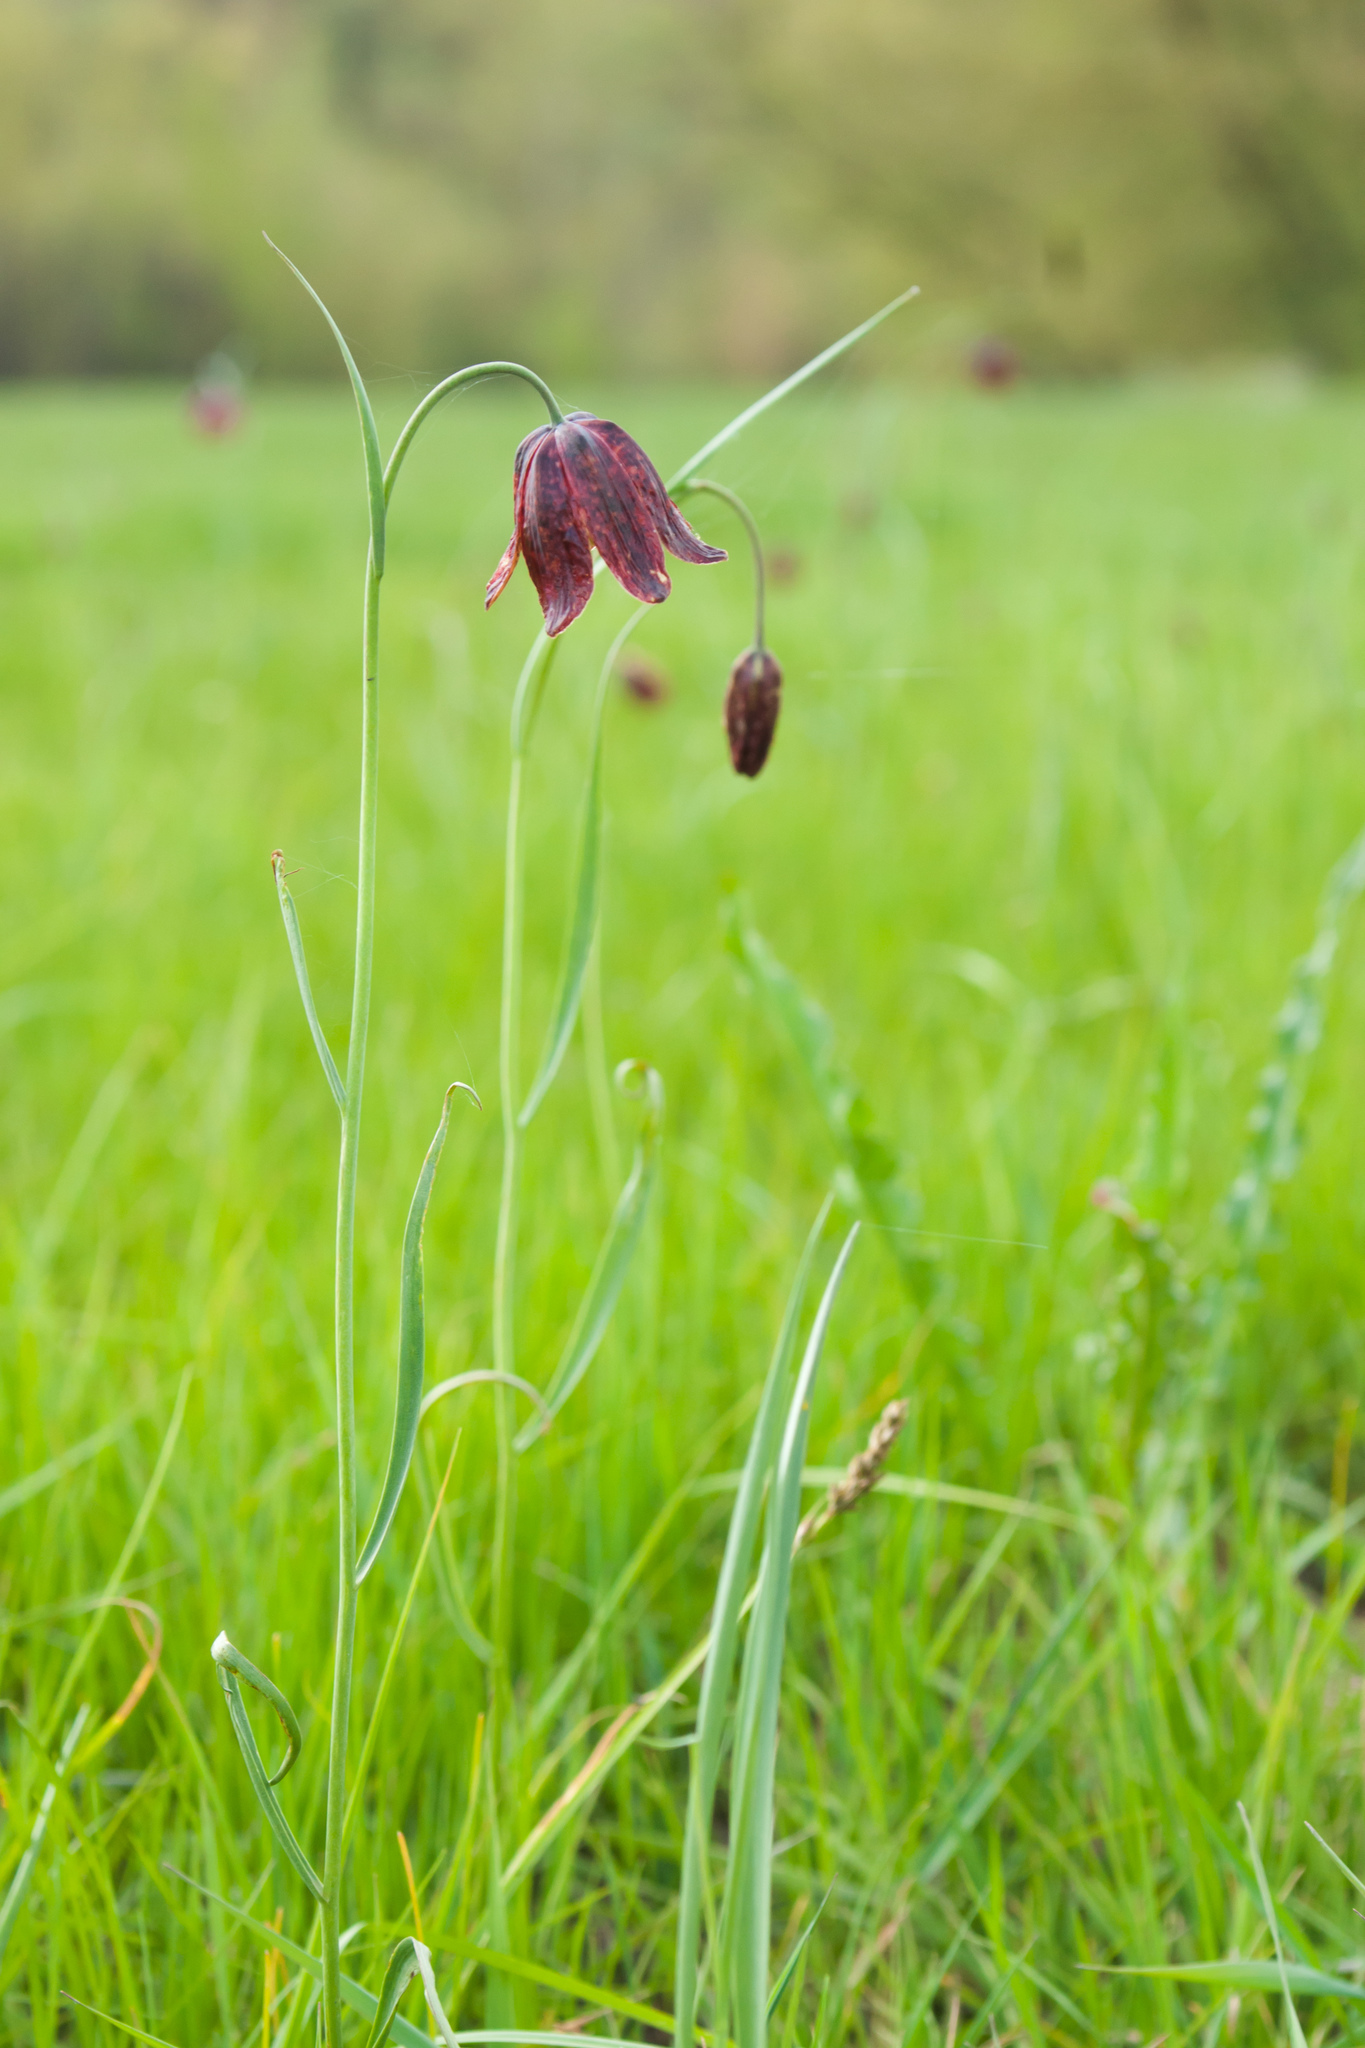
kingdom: Plantae
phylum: Tracheophyta
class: Liliopsida
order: Liliales
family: Liliaceae
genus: Fritillaria
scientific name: Fritillaria meleagroides
